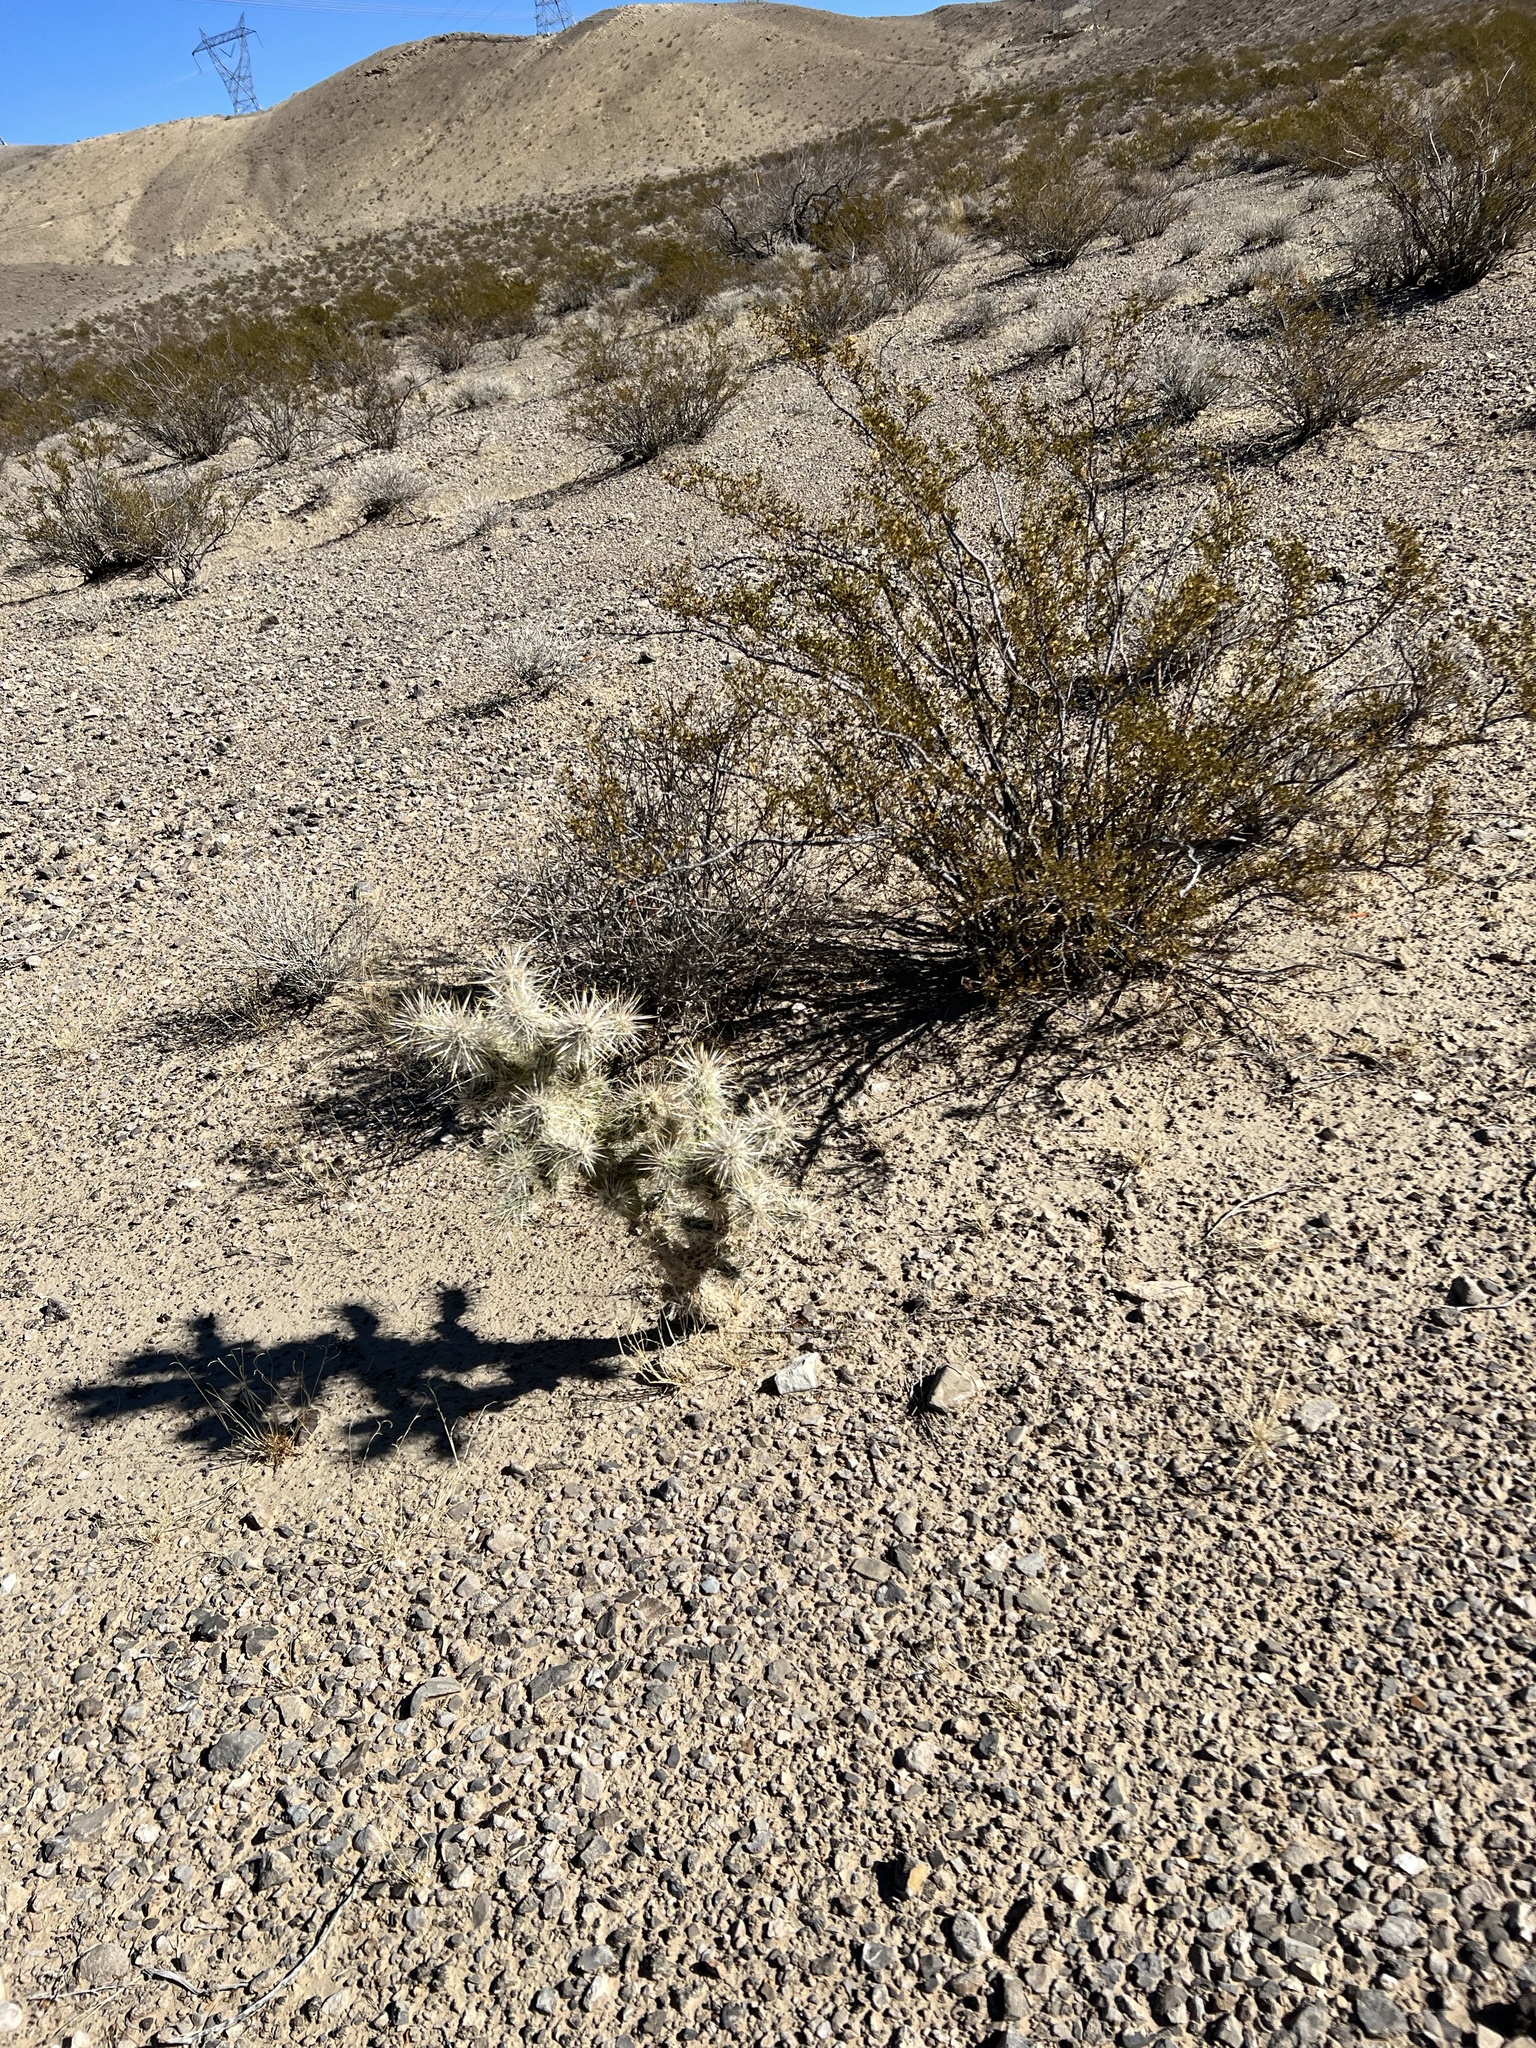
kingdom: Plantae
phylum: Tracheophyta
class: Magnoliopsida
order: Caryophyllales
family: Cactaceae
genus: Cylindropuntia
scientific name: Cylindropuntia echinocarpa
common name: Ground cholla
